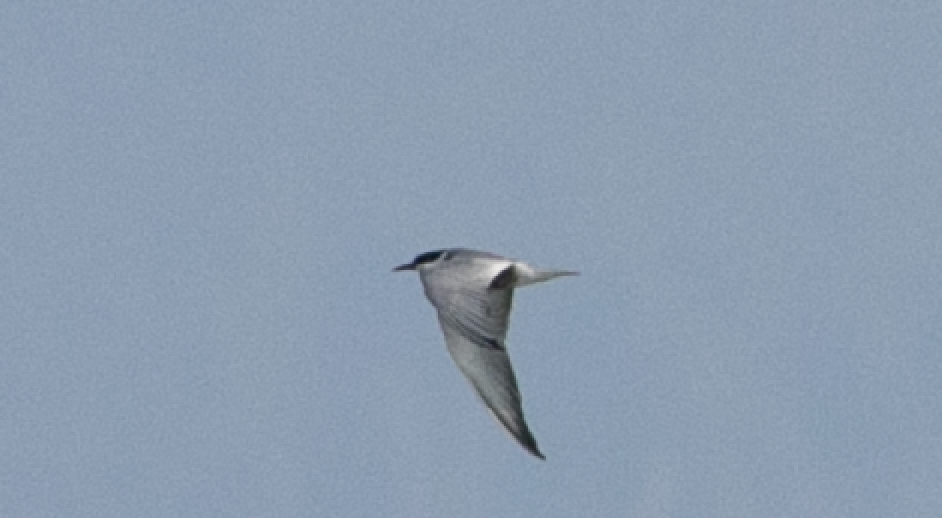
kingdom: Animalia
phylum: Chordata
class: Aves
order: Charadriiformes
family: Laridae
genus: Chlidonias
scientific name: Chlidonias hybrida
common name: Whiskered tern
